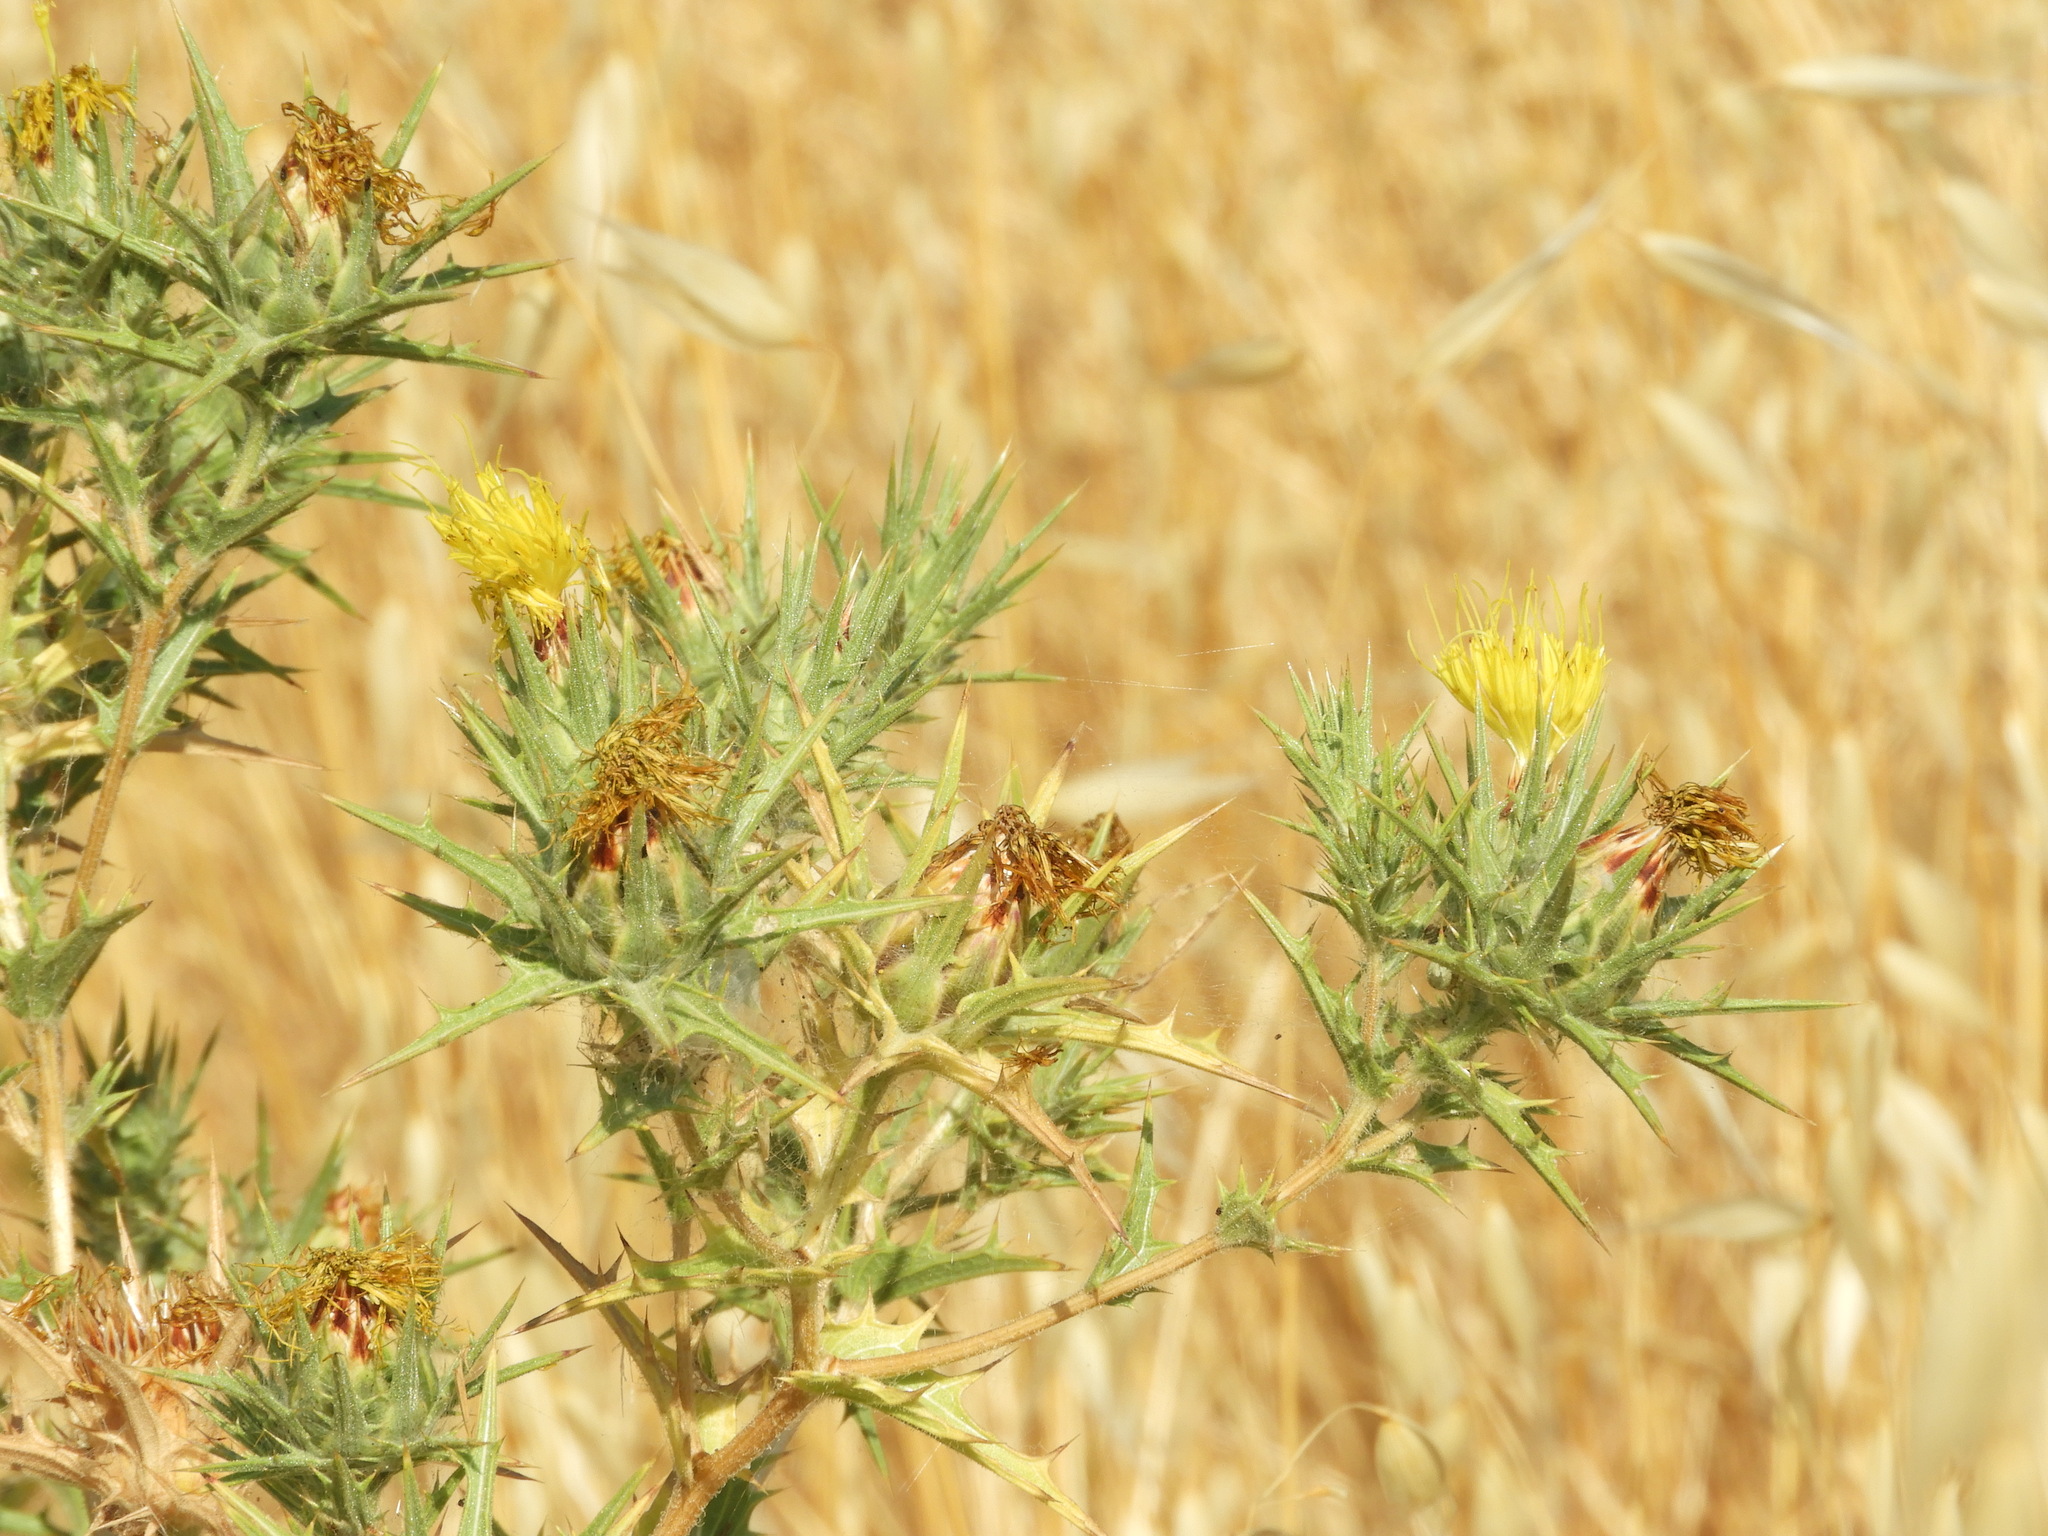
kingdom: Plantae
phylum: Tracheophyta
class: Magnoliopsida
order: Asterales
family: Asteraceae
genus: Carthamus
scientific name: Carthamus lanatus
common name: Downy safflower
